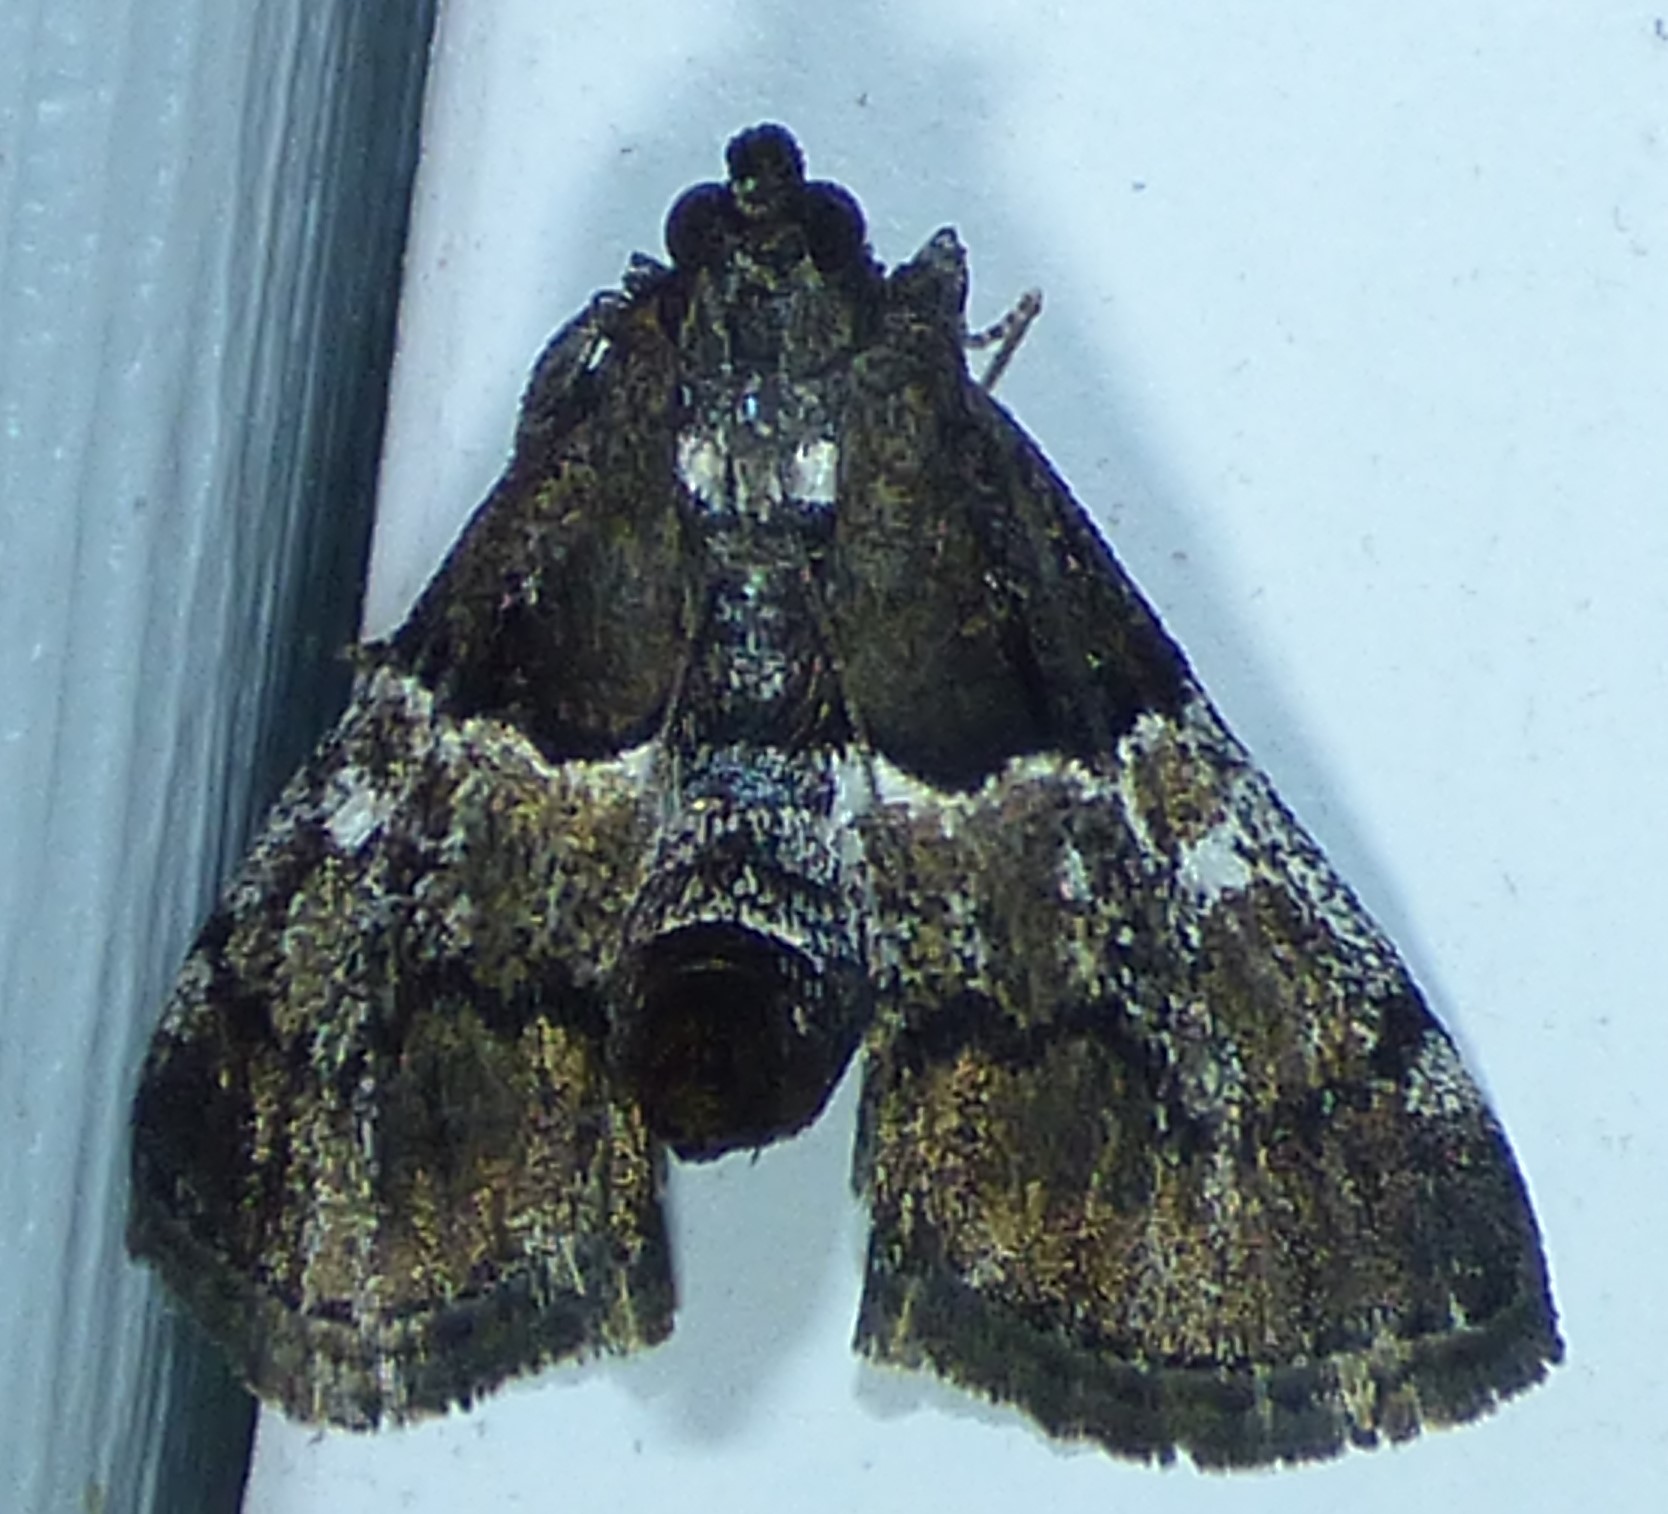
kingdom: Animalia
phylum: Arthropoda
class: Insecta
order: Lepidoptera
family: Pyralidae
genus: Macalla
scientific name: Macalla zelleri
